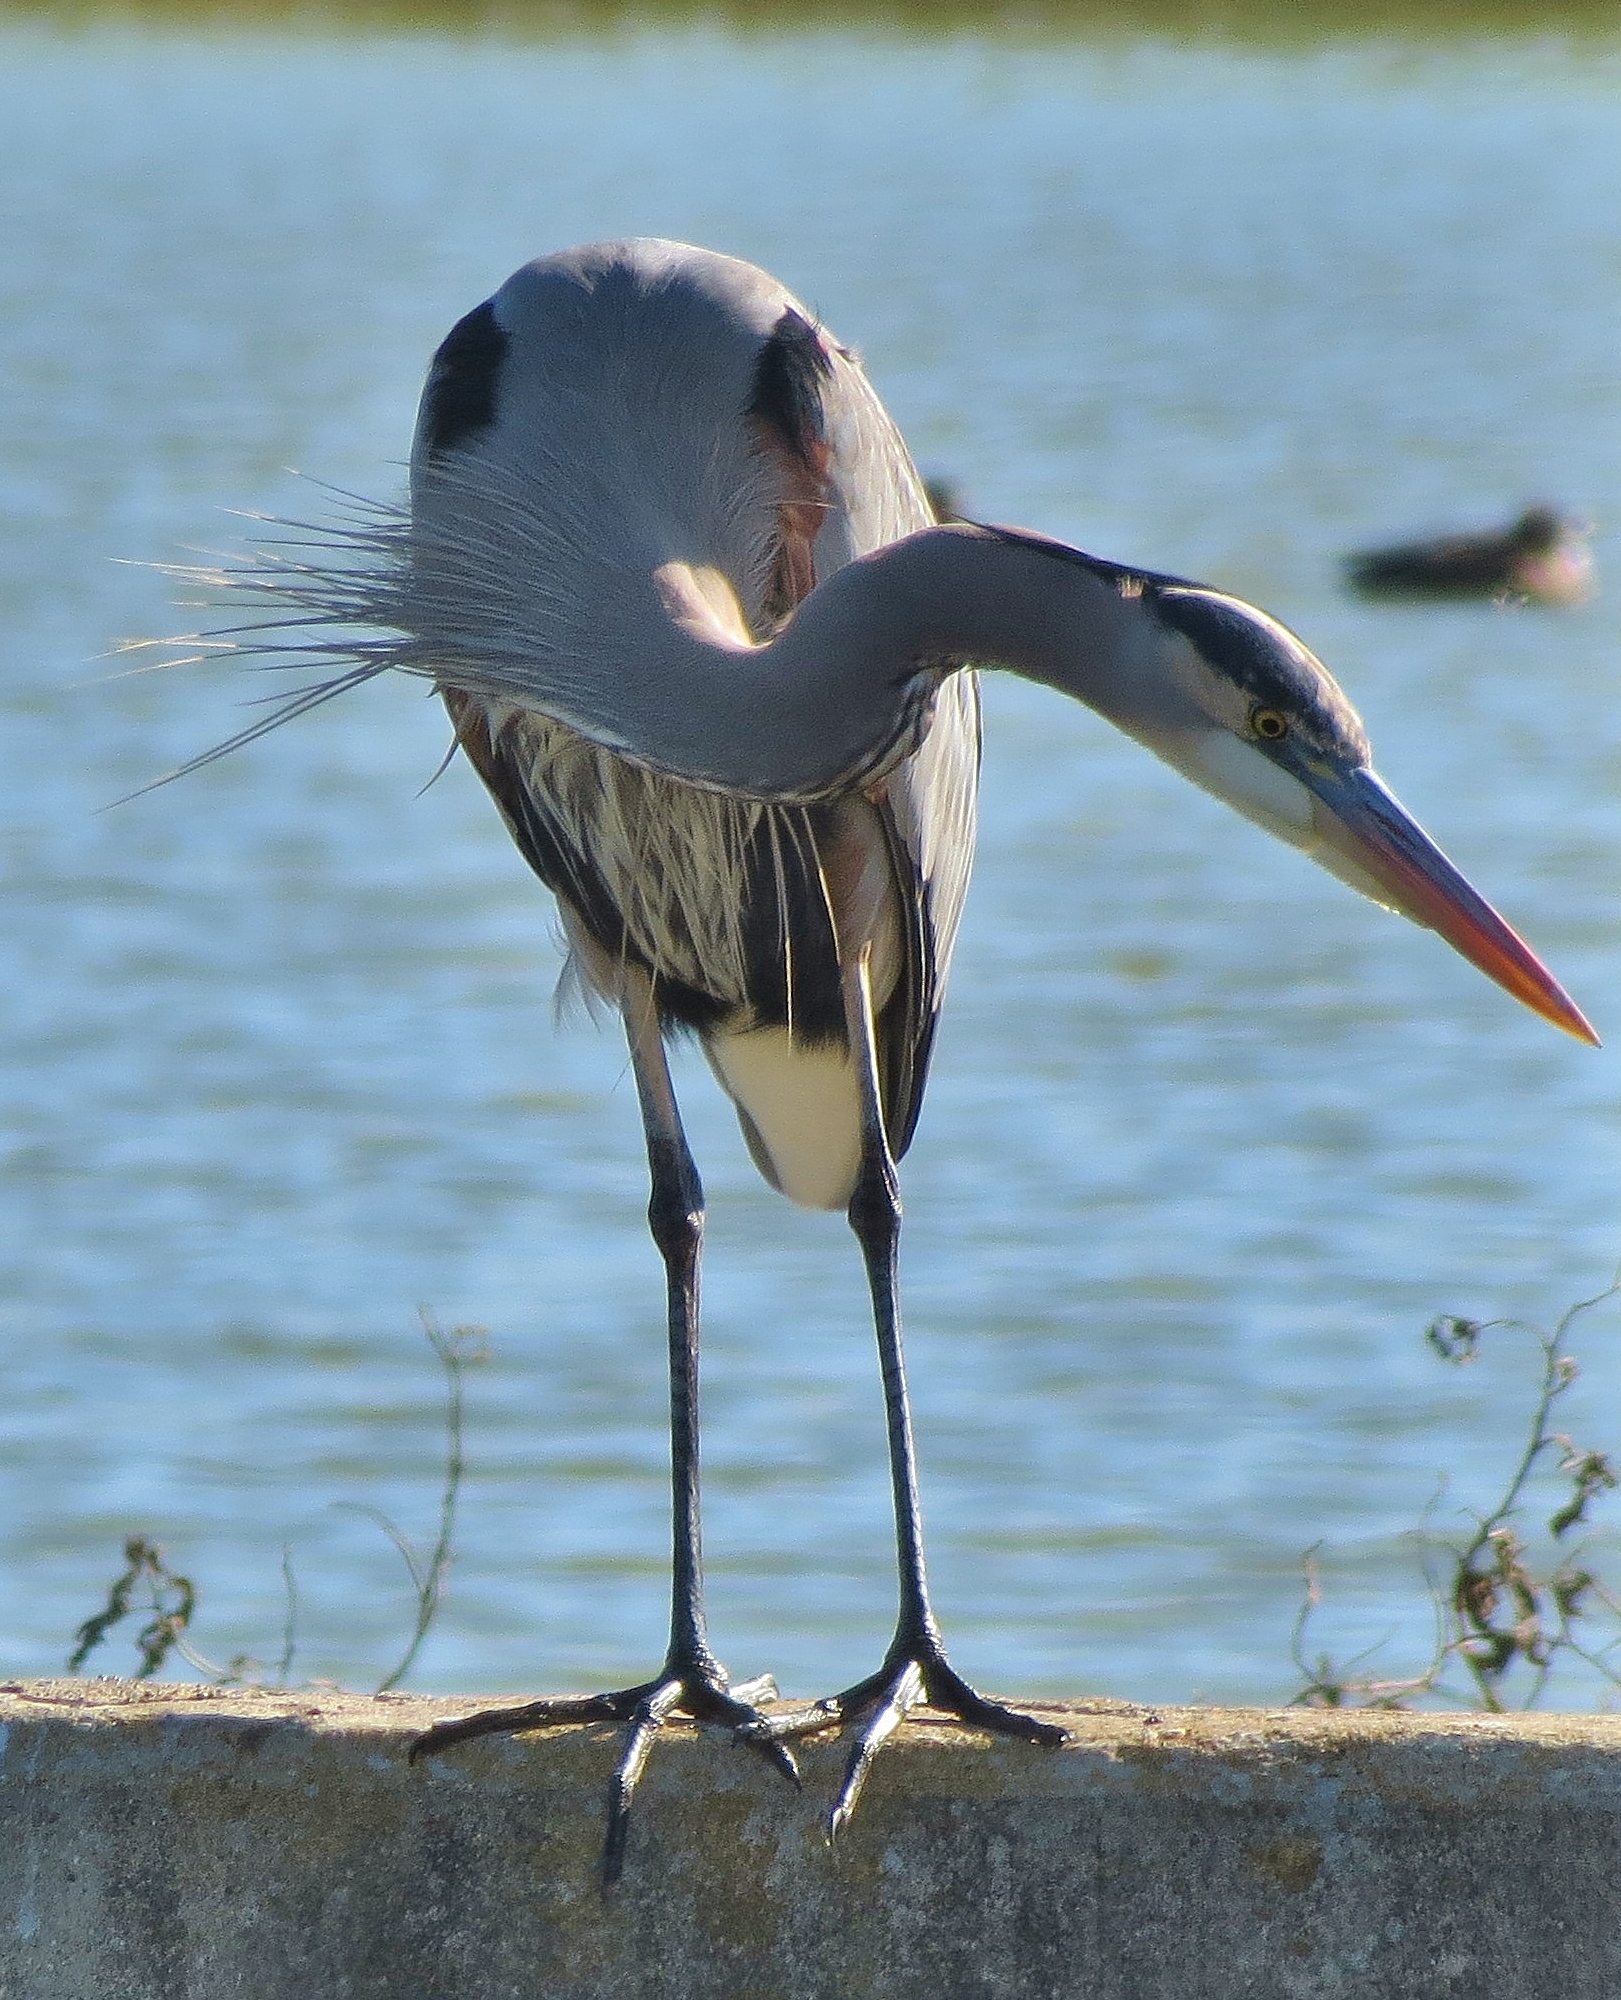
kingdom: Animalia
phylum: Chordata
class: Aves
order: Pelecaniformes
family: Ardeidae
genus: Ardea
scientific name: Ardea herodias
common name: Great blue heron
